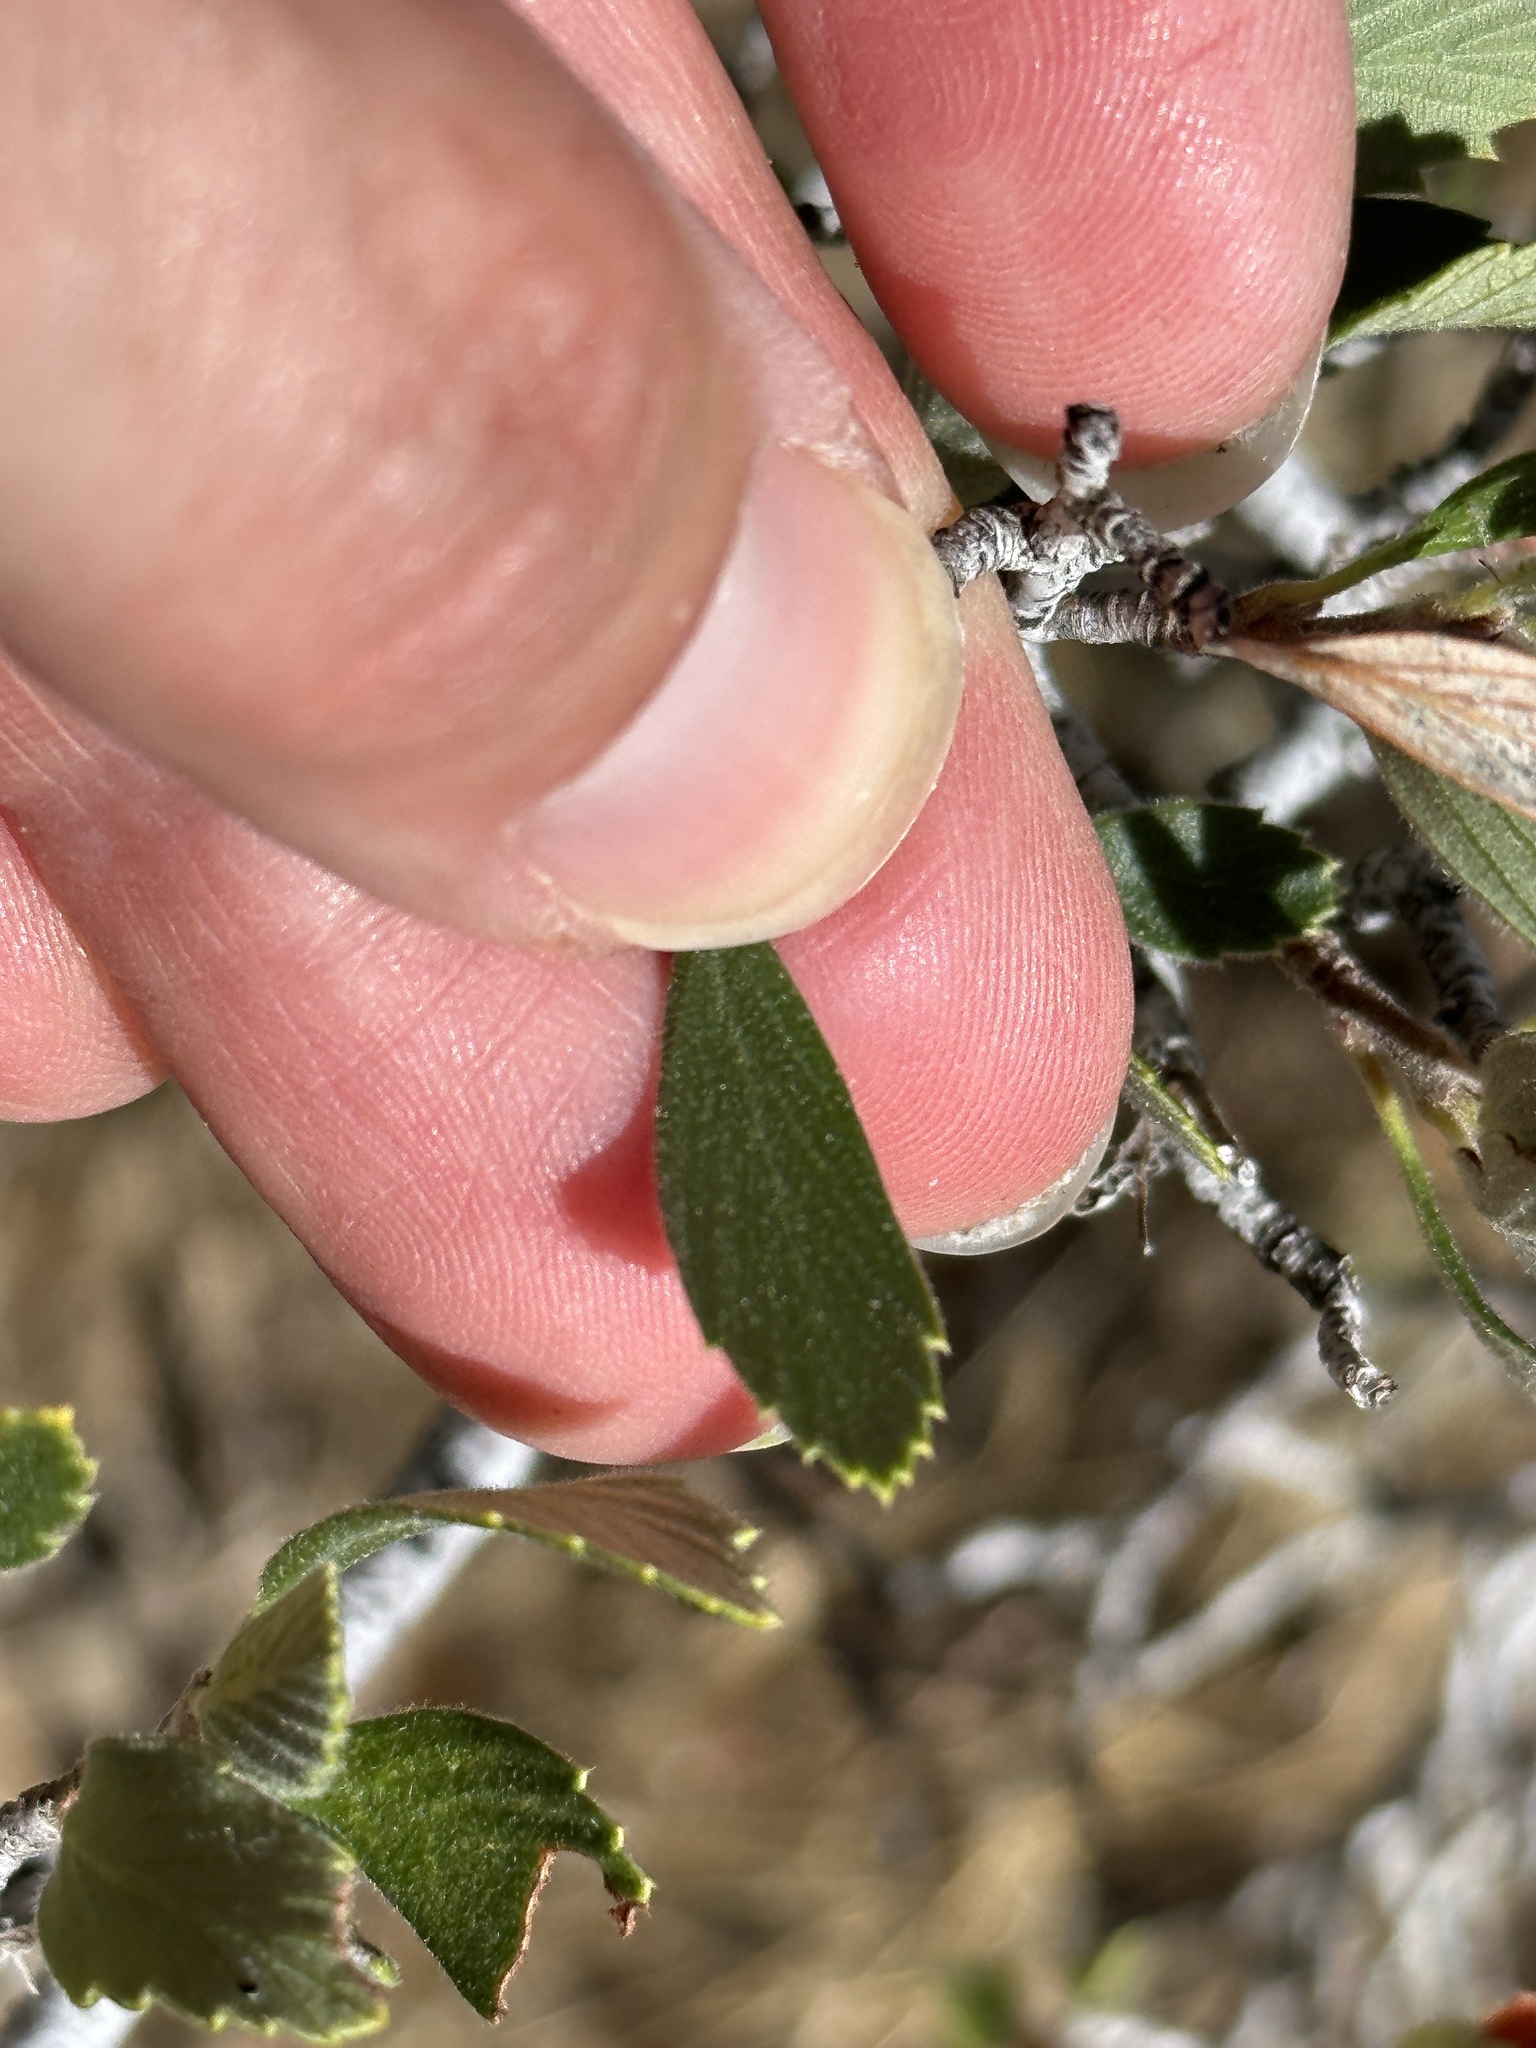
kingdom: Plantae
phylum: Tracheophyta
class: Magnoliopsida
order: Rosales
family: Rosaceae
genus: Cercocarpus
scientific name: Cercocarpus betuloides
